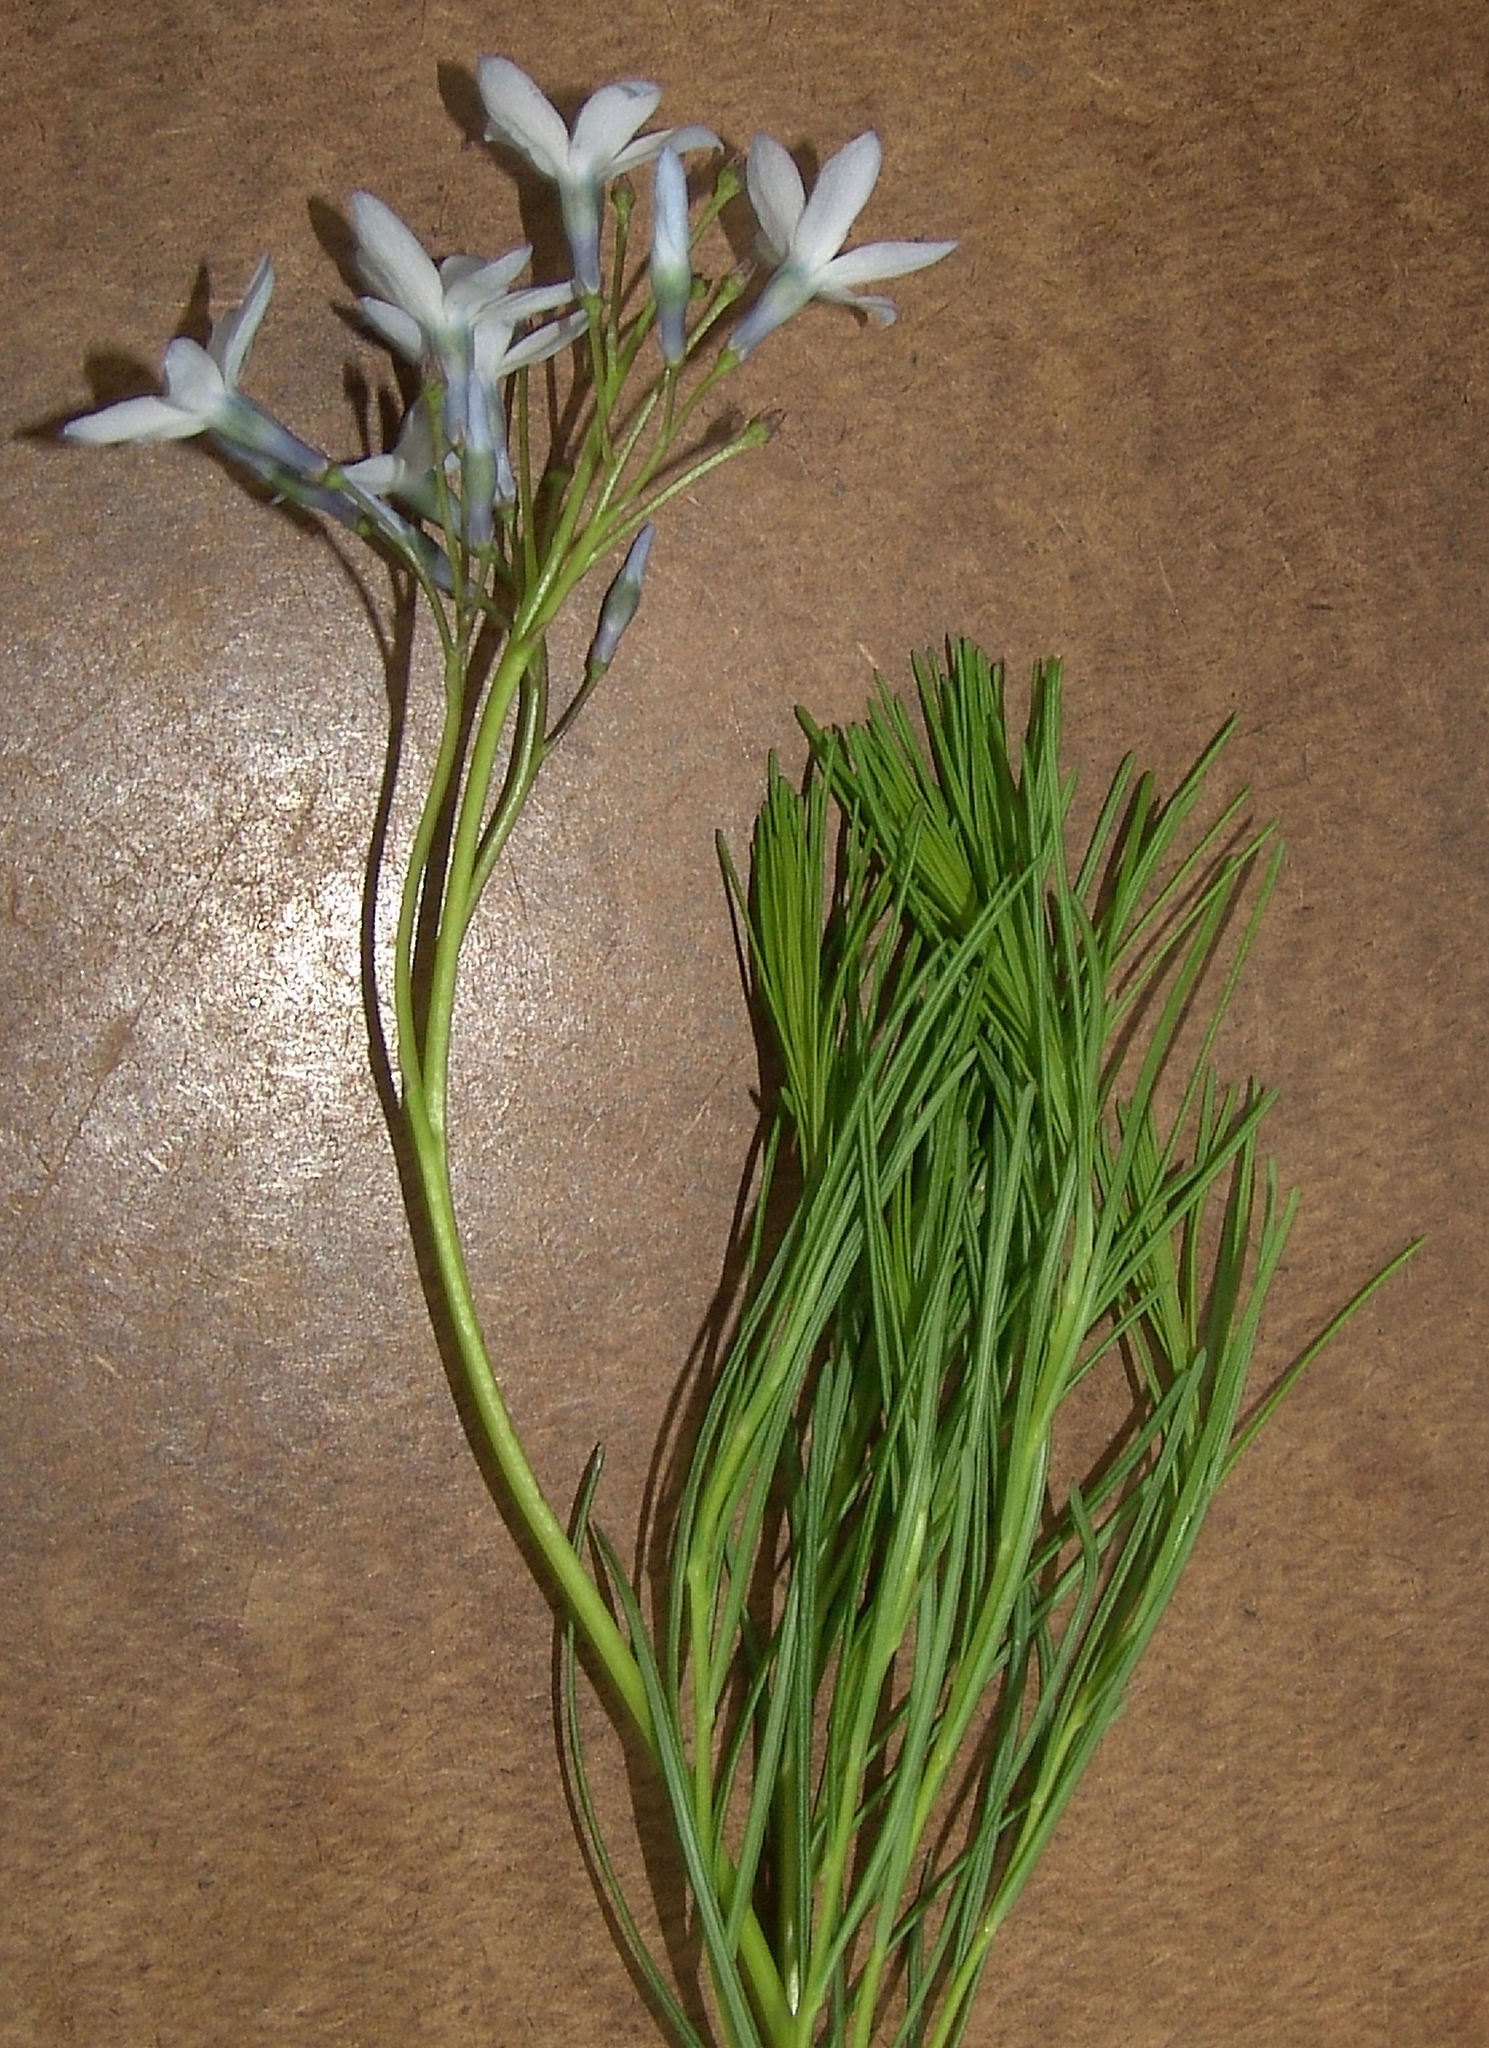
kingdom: Plantae
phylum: Tracheophyta
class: Magnoliopsida
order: Gentianales
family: Apocynaceae
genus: Amsonia
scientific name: Amsonia ciliata
